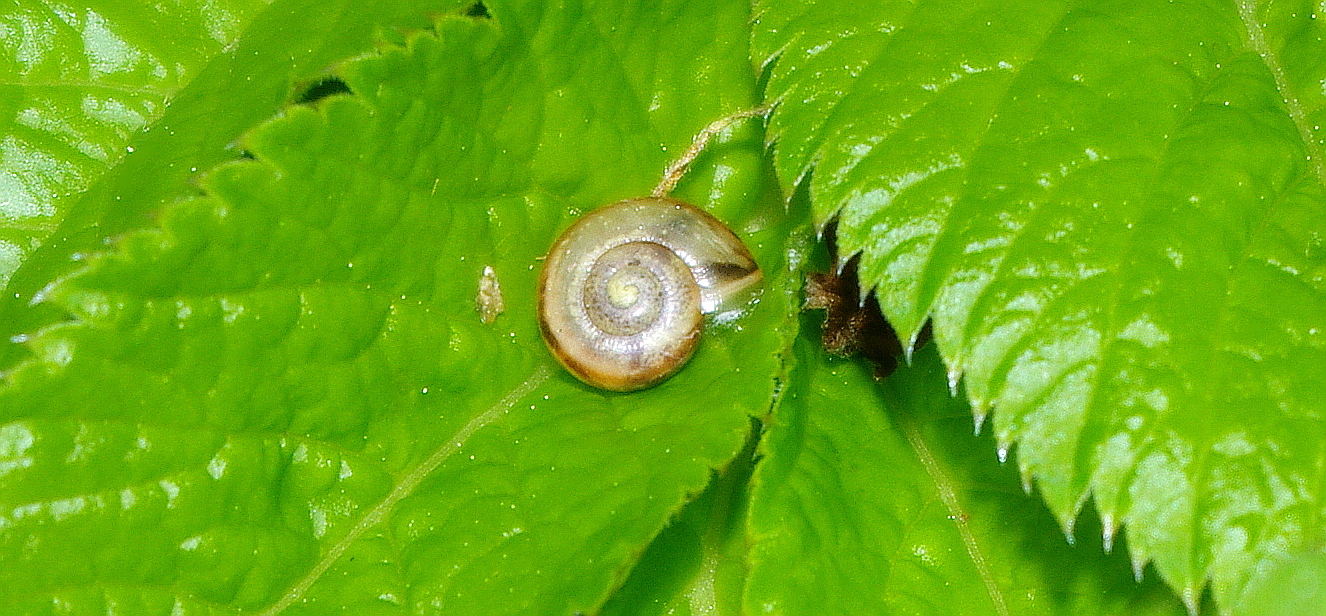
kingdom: Animalia
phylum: Mollusca
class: Gastropoda
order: Stylommatophora
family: Camaenidae
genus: Fruticicola
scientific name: Fruticicola fruticum
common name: Bush snail
